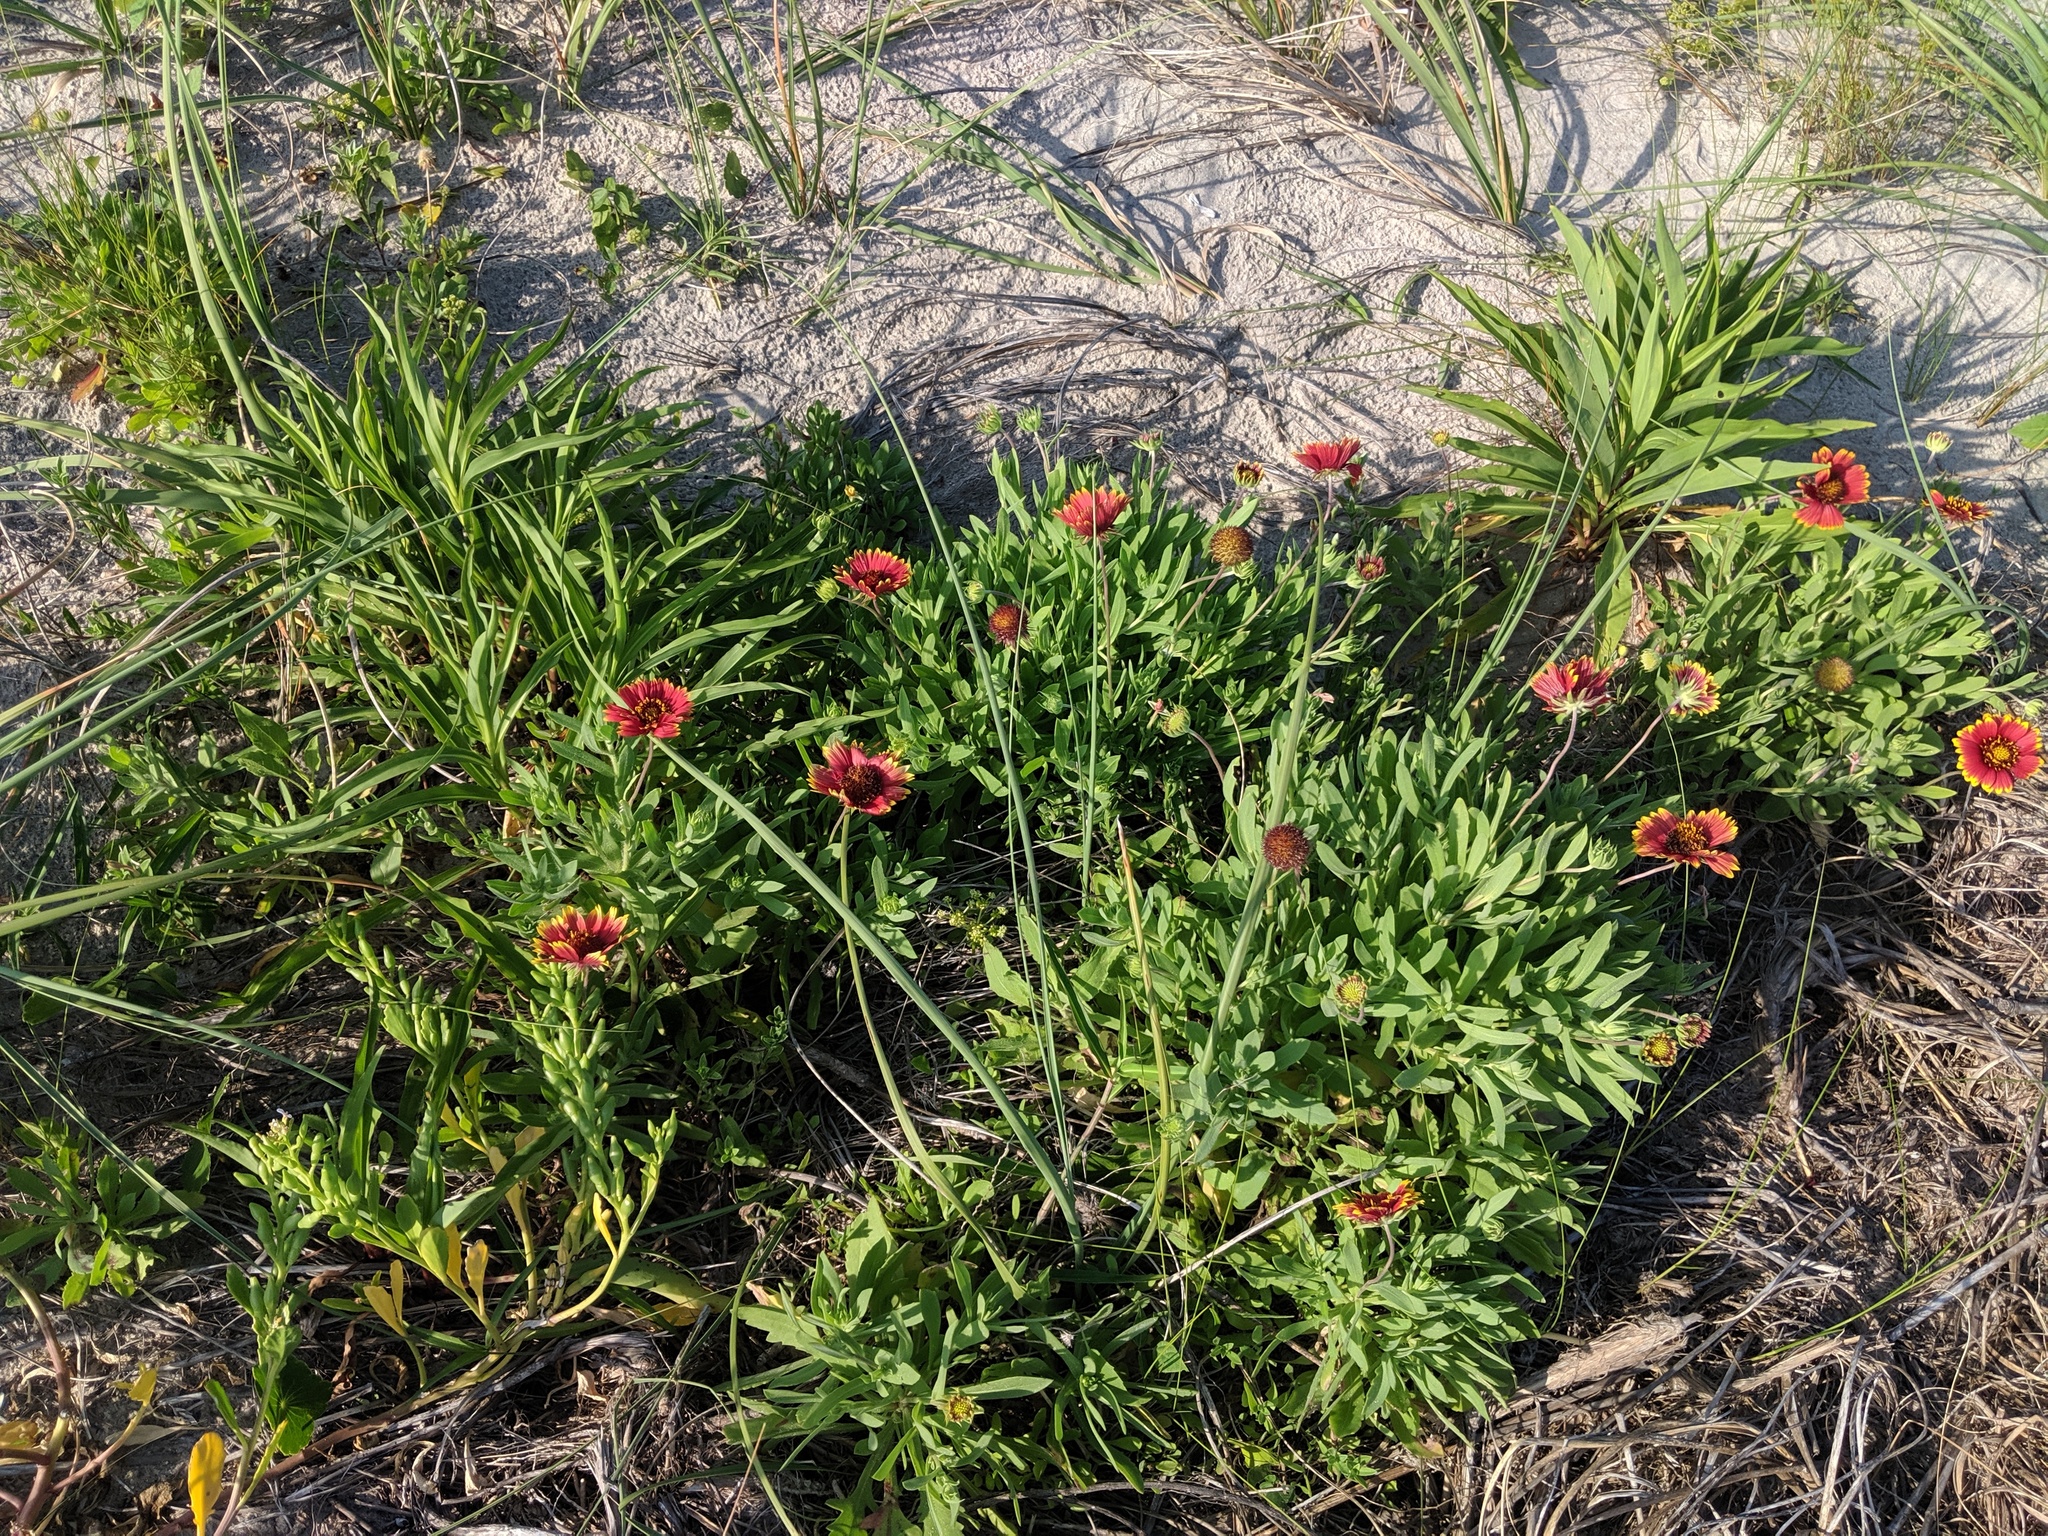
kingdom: Plantae
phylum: Tracheophyta
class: Magnoliopsida
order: Asterales
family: Asteraceae
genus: Gaillardia
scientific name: Gaillardia pulchella
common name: Firewheel
